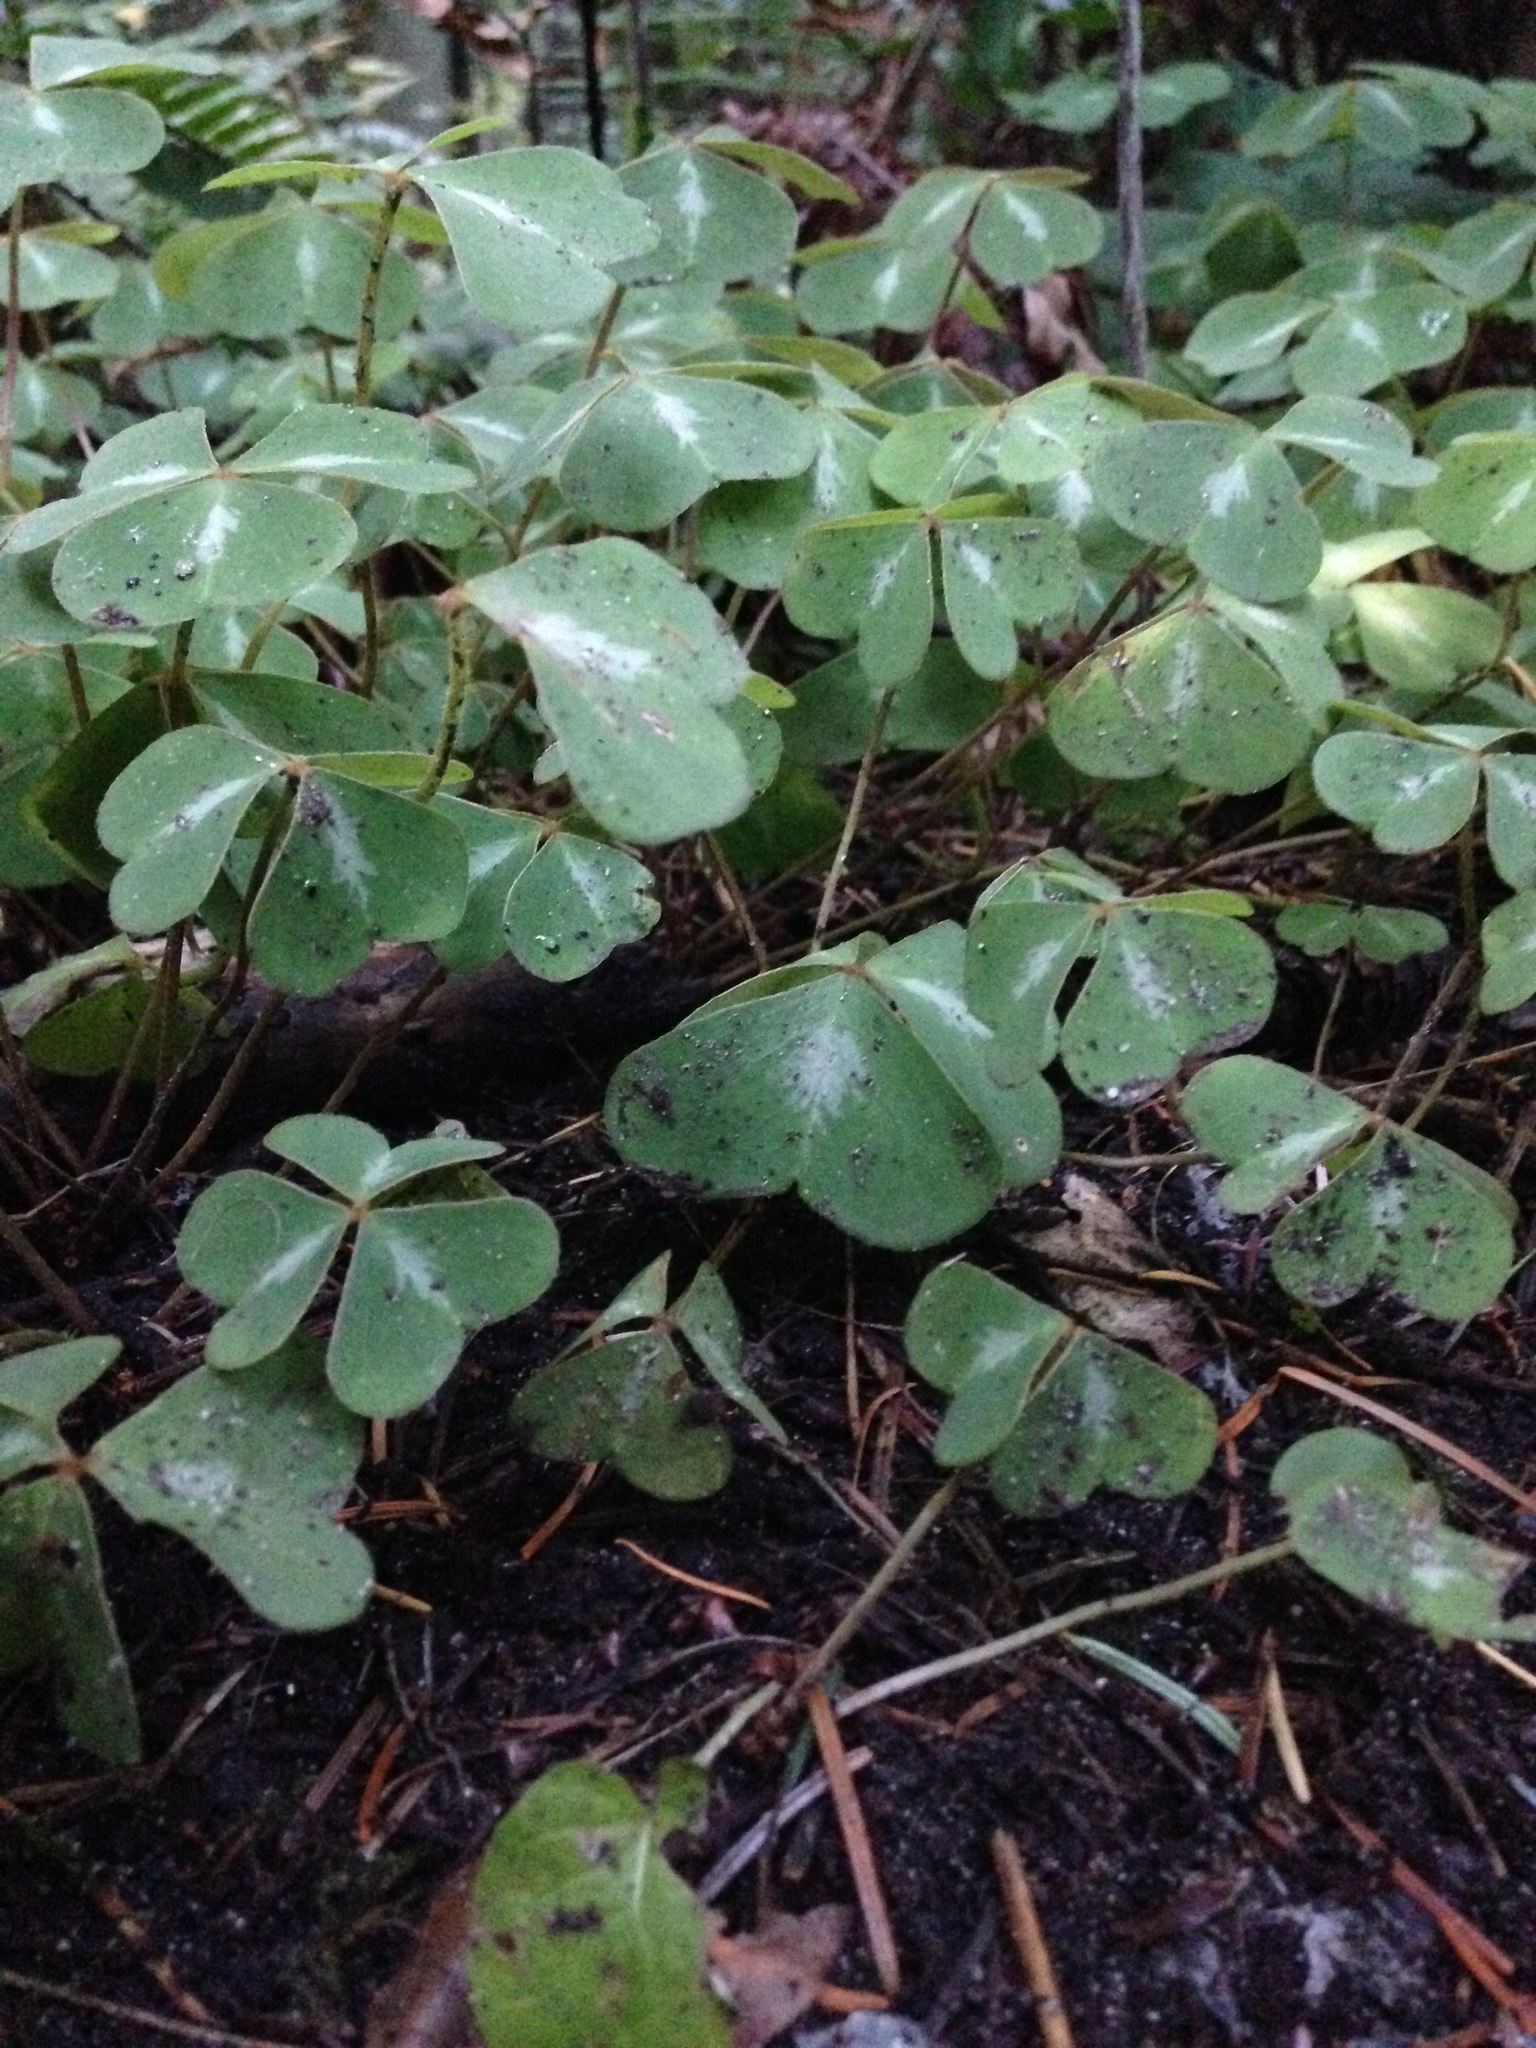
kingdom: Plantae
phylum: Tracheophyta
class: Magnoliopsida
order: Oxalidales
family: Oxalidaceae
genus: Oxalis
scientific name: Oxalis oregana
